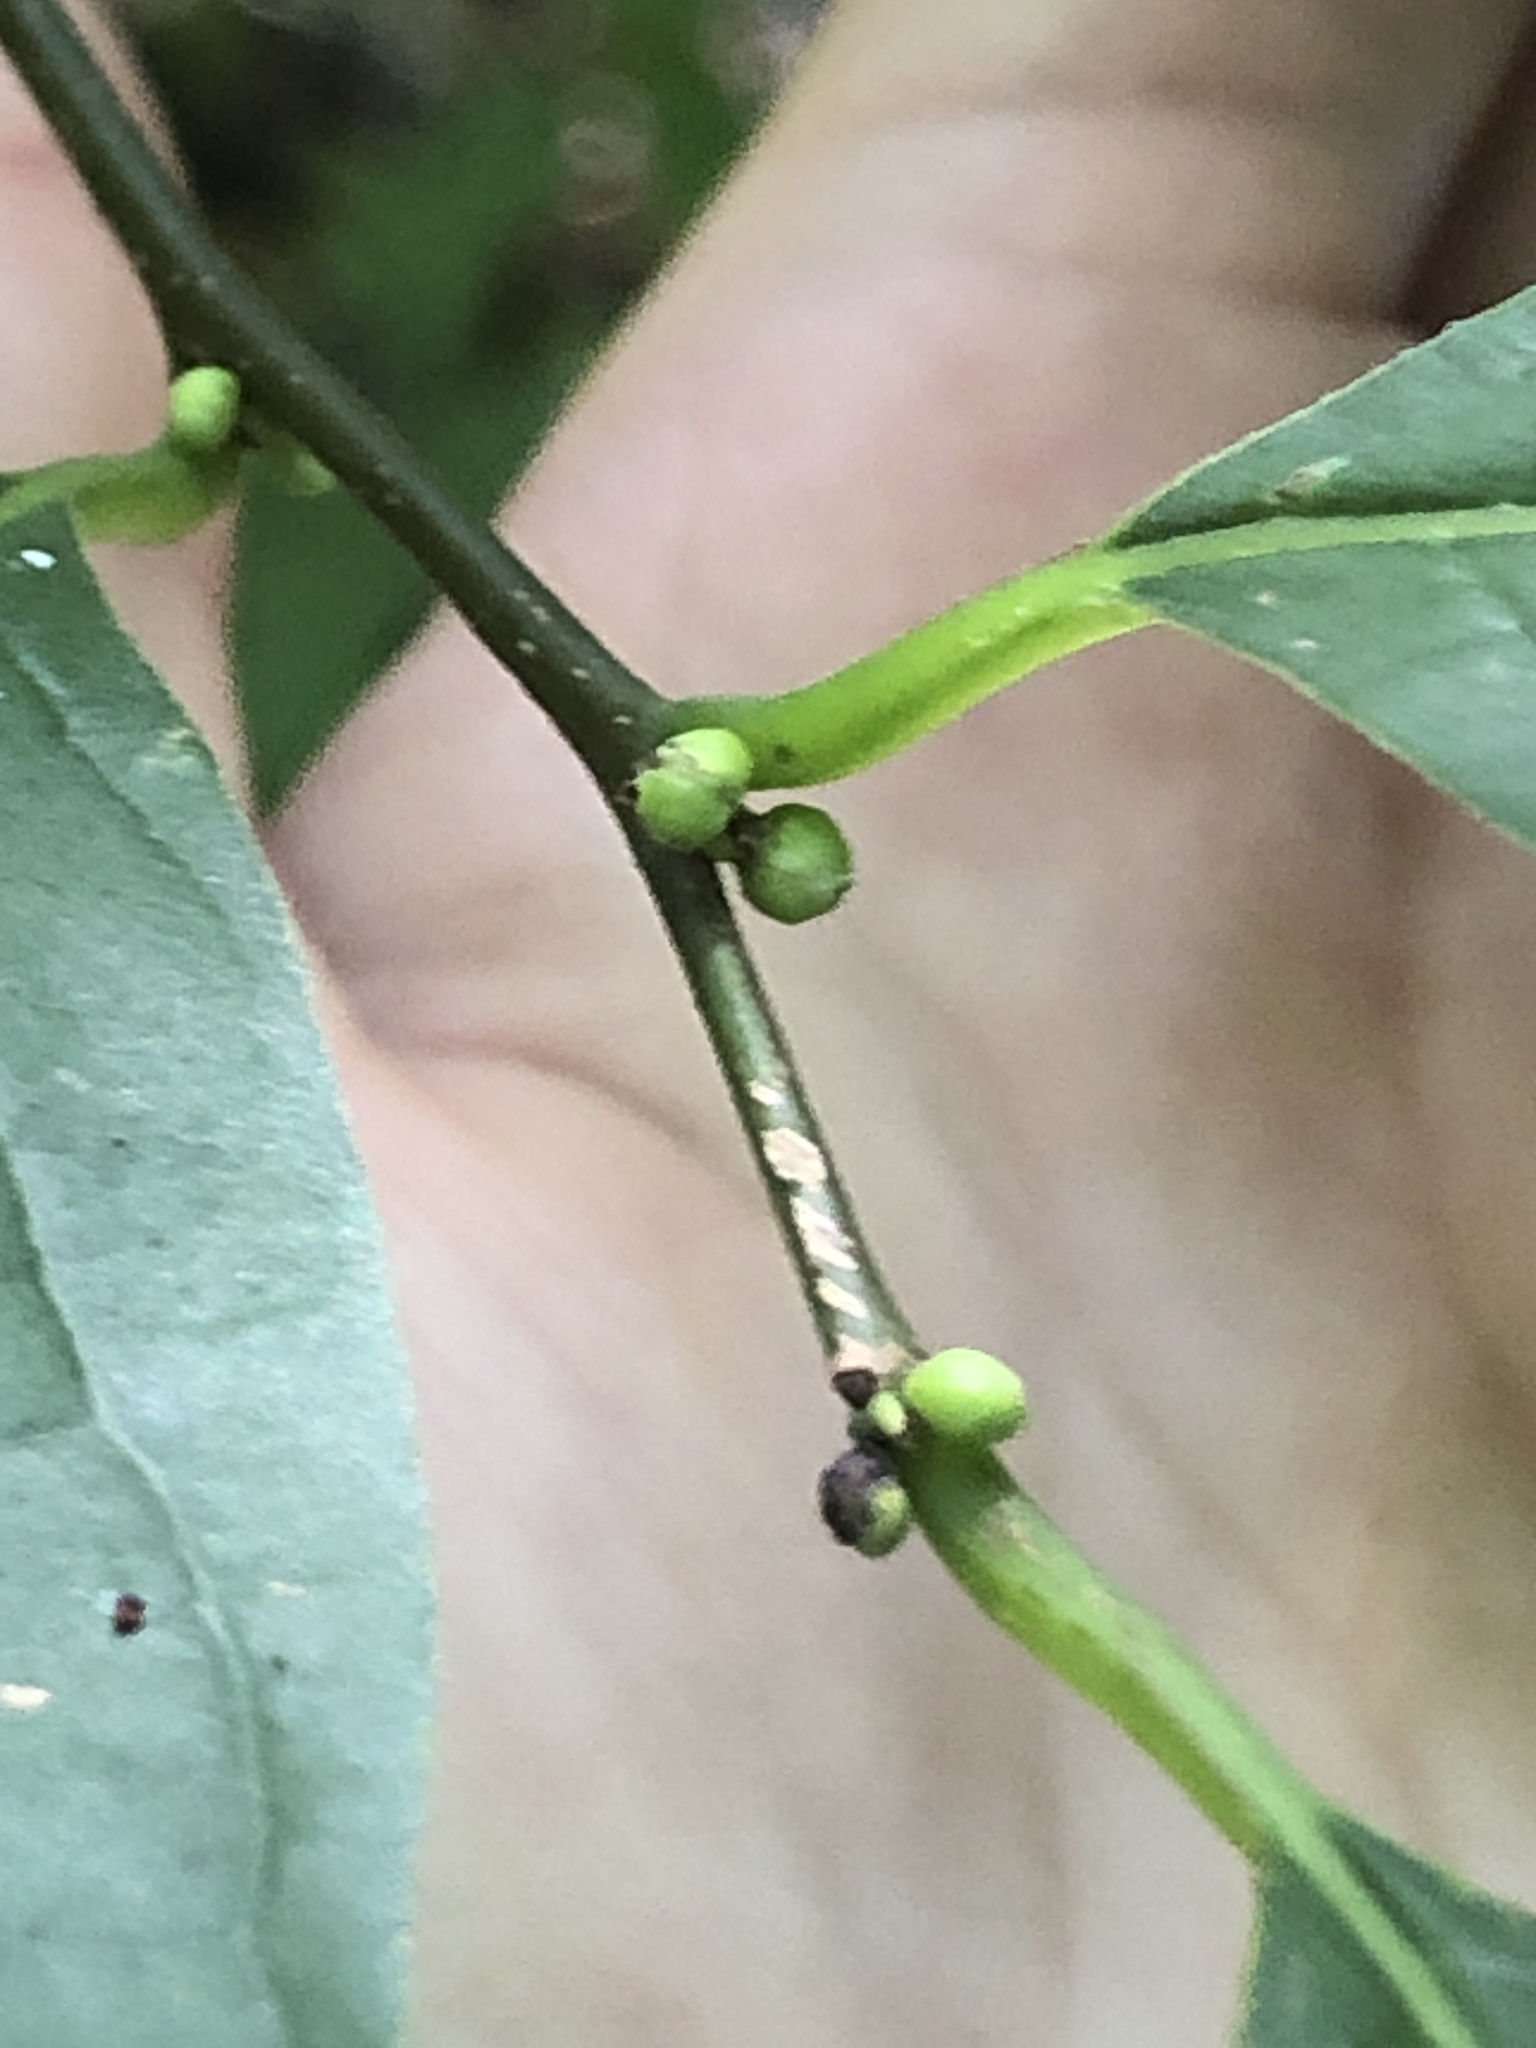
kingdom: Plantae
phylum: Tracheophyta
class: Magnoliopsida
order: Laurales
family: Lauraceae
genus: Lindera
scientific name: Lindera benzoin
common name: Spicebush
